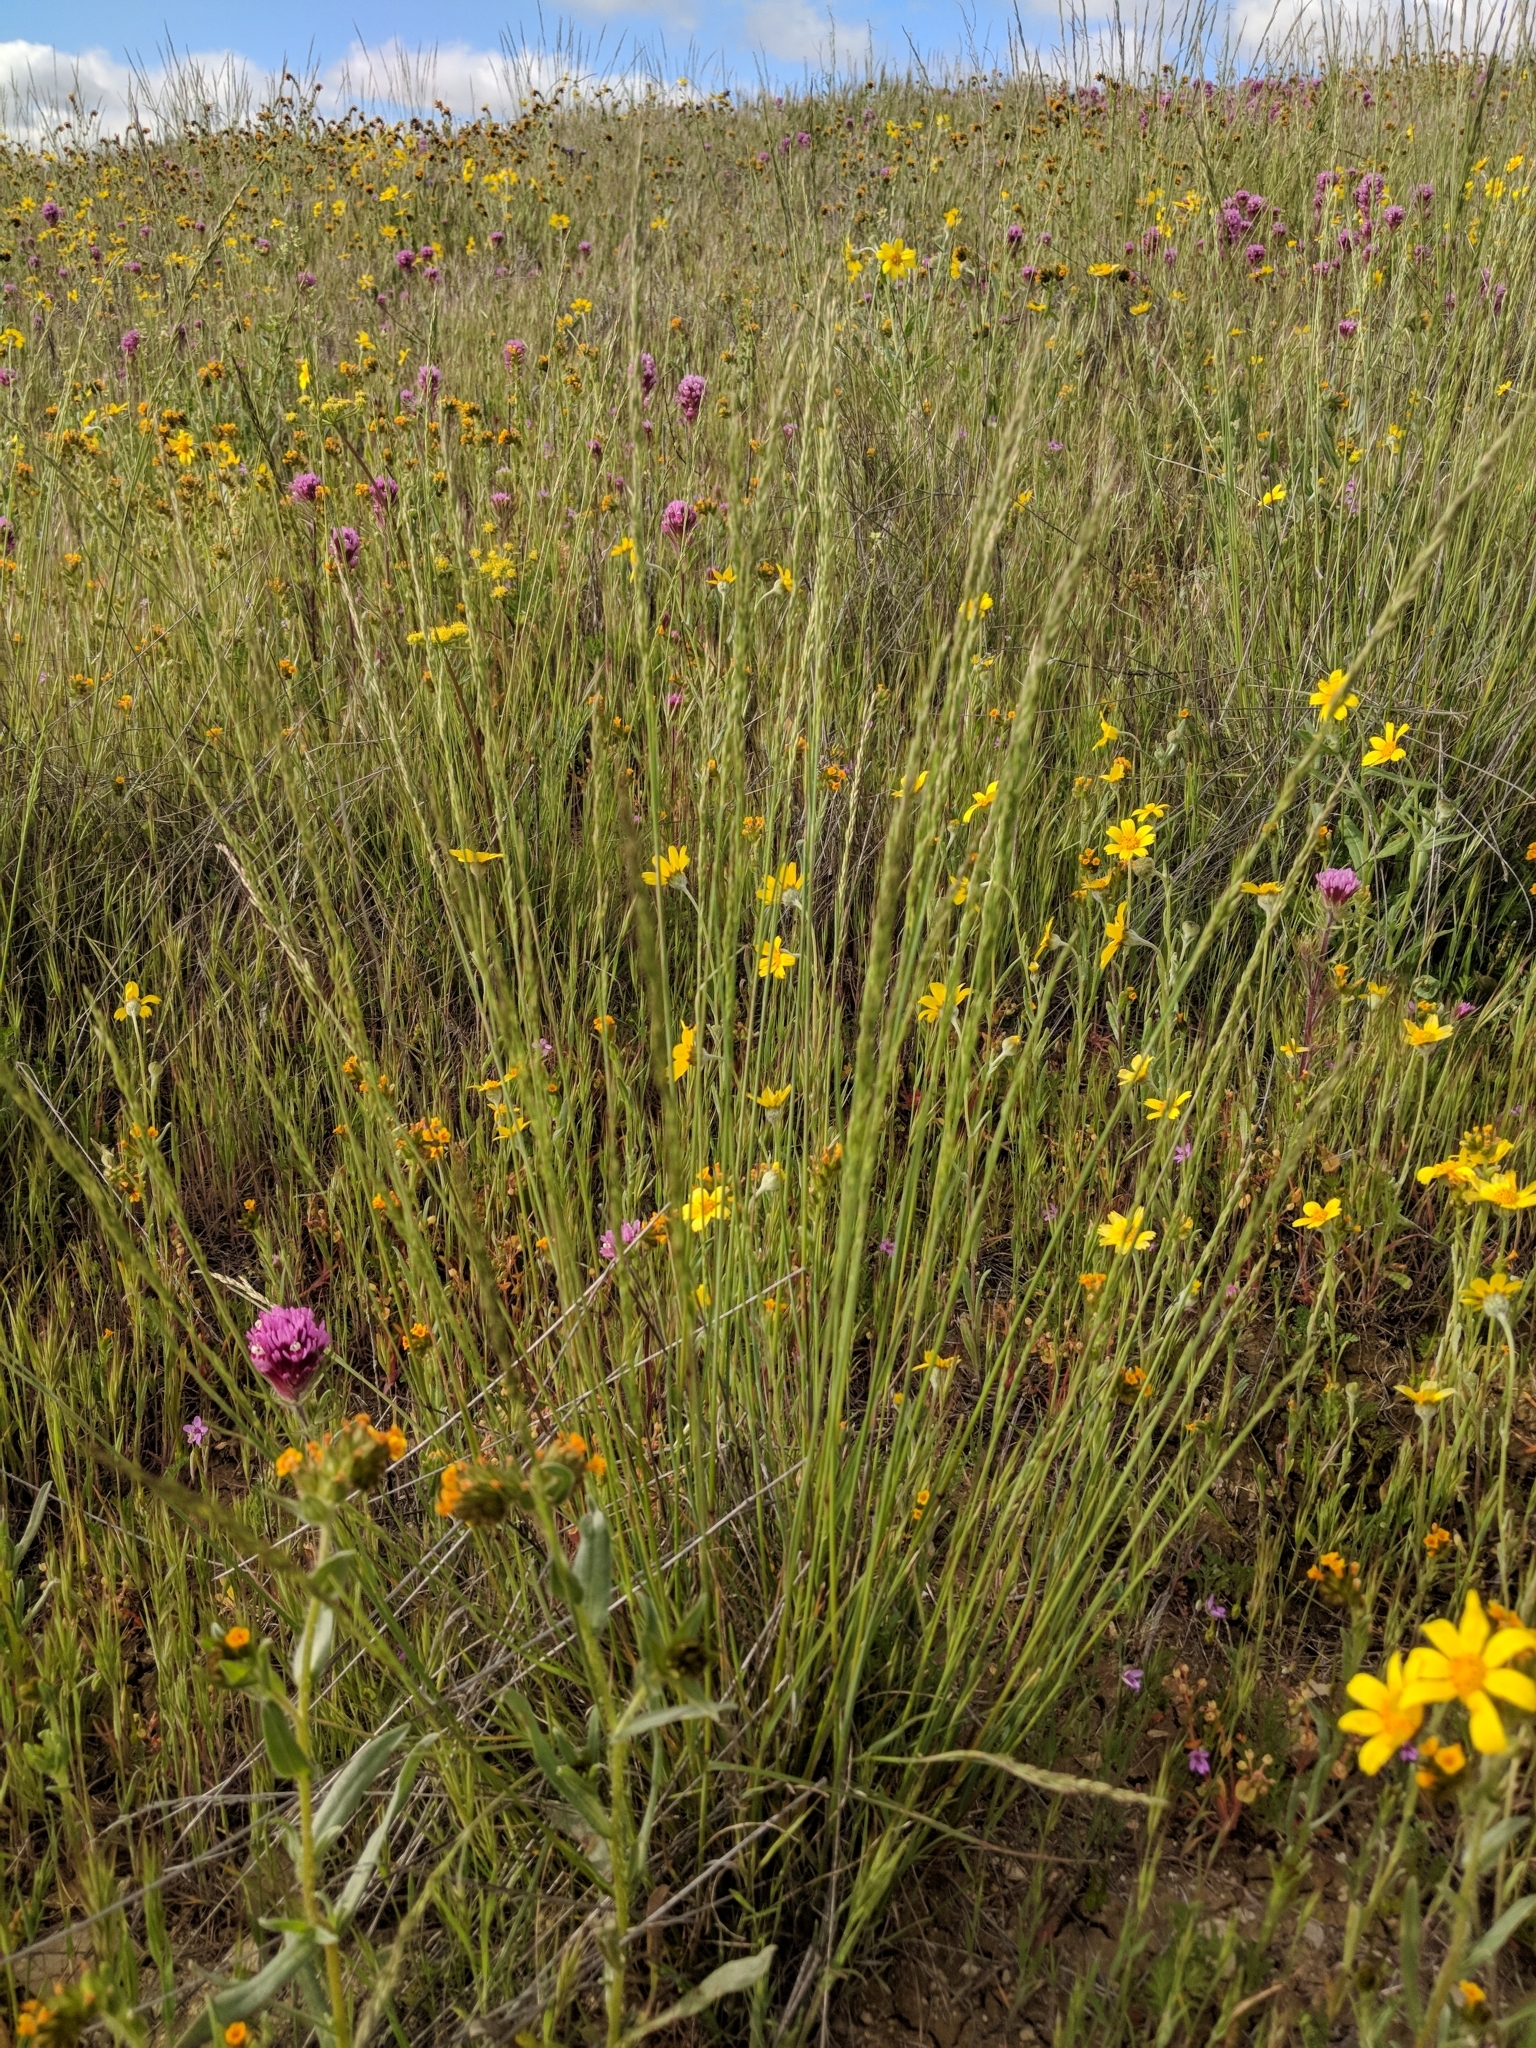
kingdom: Plantae
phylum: Tracheophyta
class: Liliopsida
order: Poales
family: Poaceae
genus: Poa
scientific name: Poa secunda
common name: Sandberg bluegrass
